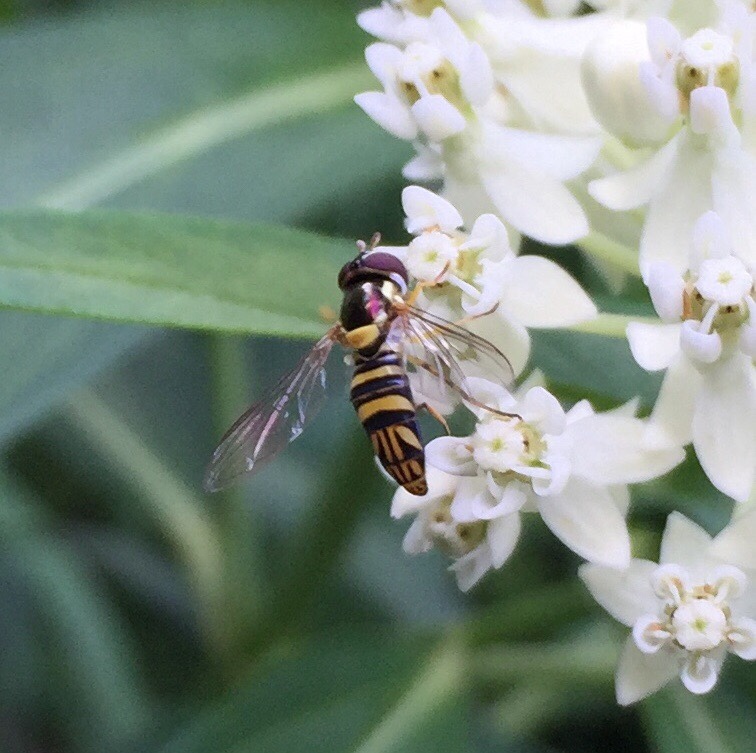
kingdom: Animalia
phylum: Arthropoda
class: Insecta
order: Diptera
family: Syrphidae
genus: Allograpta
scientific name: Allograpta obliqua
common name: Common oblique syrphid
